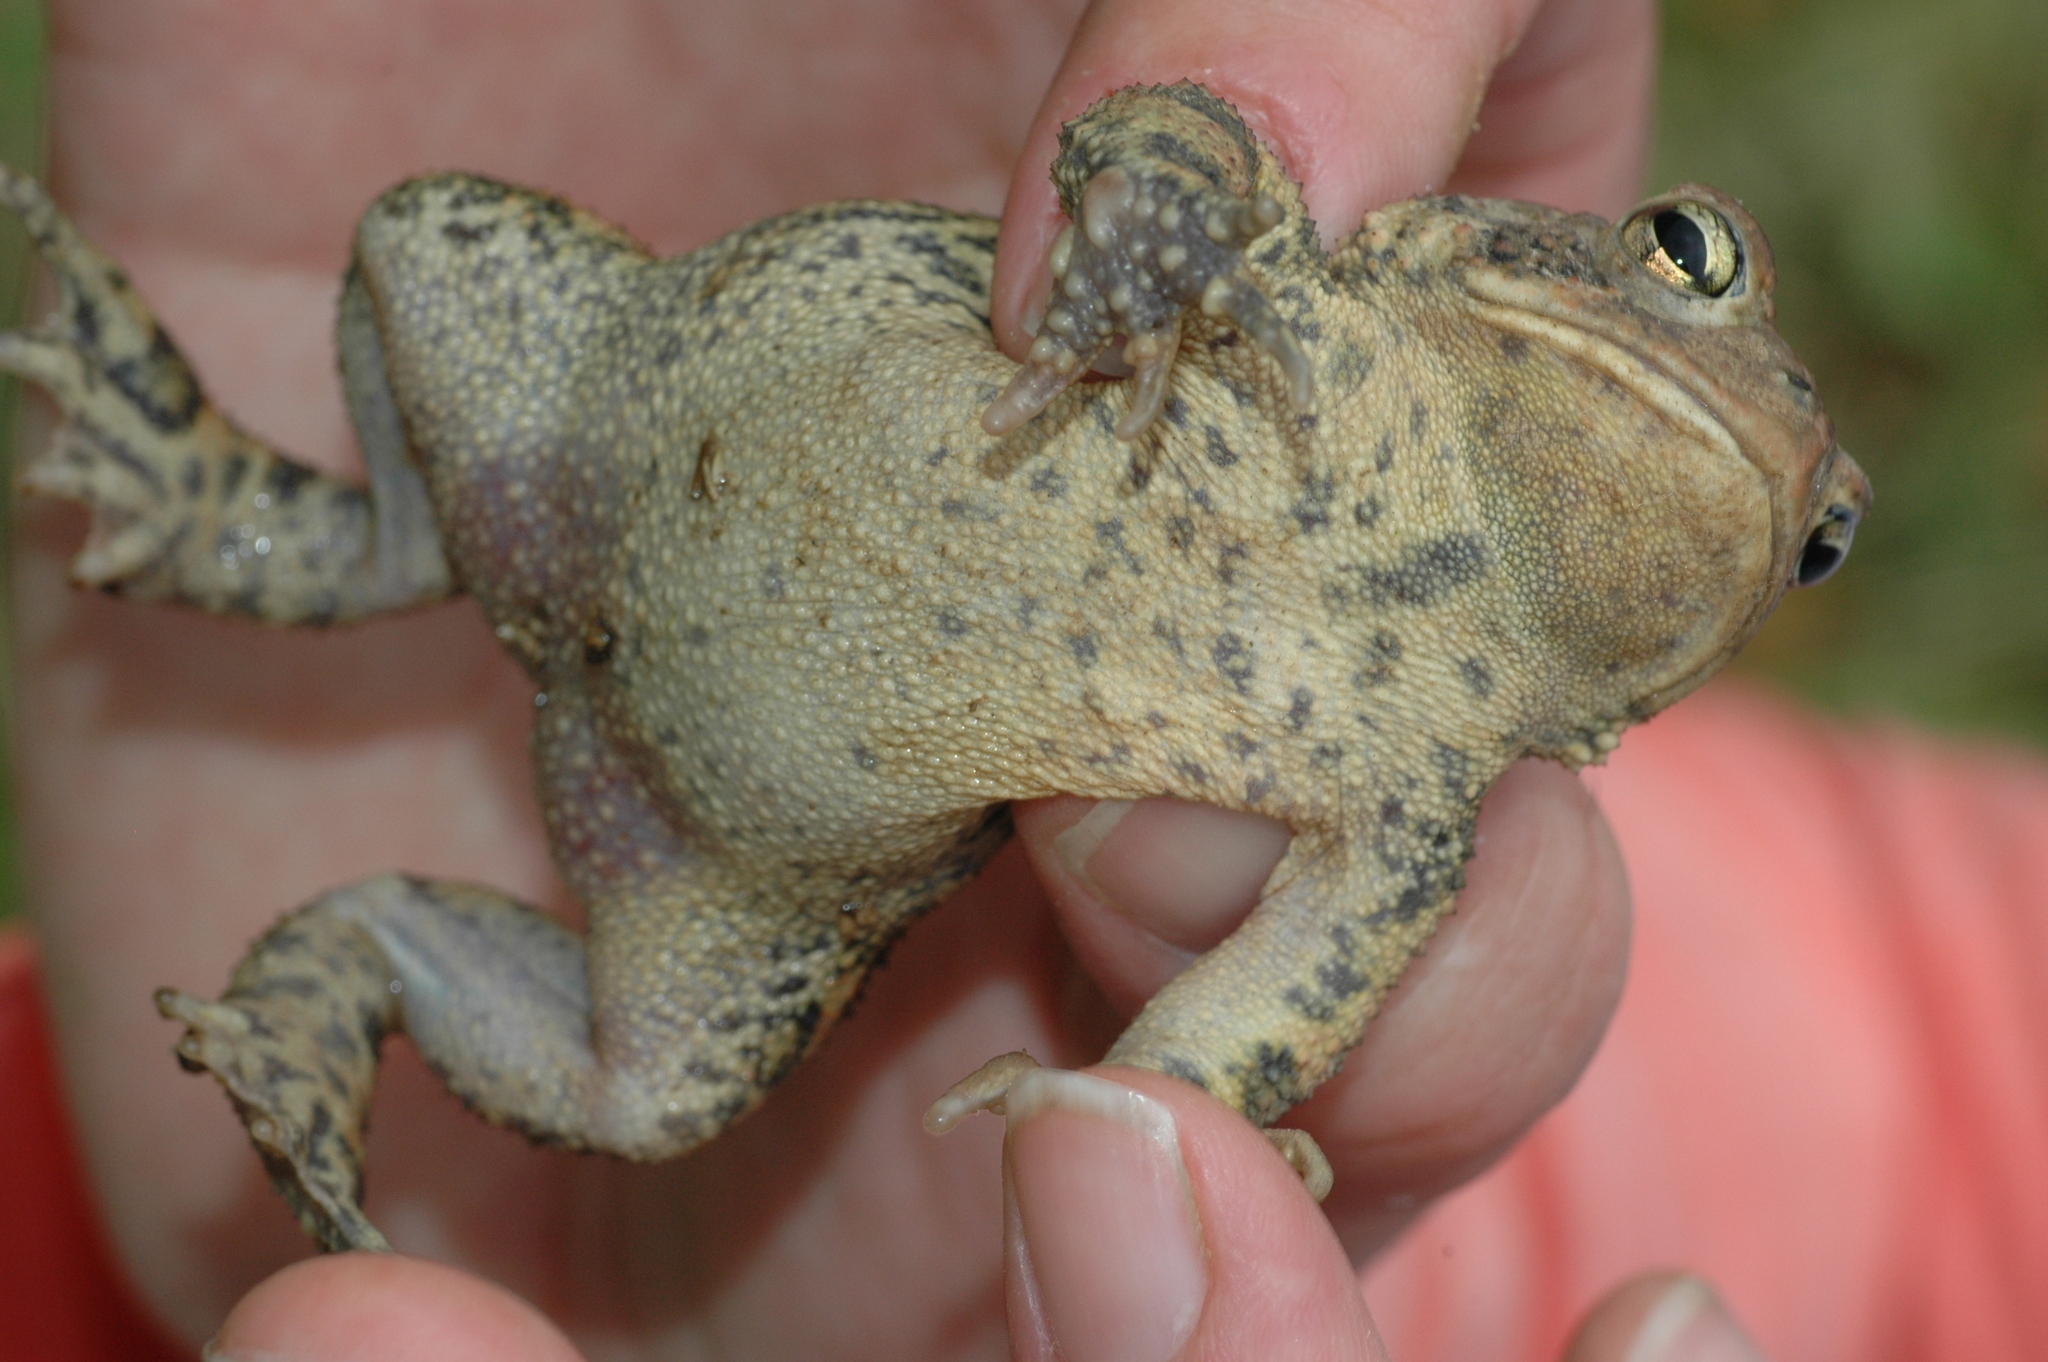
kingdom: Animalia
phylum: Chordata
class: Amphibia
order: Anura
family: Bufonidae
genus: Anaxyrus
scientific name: Anaxyrus americanus
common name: American toad
